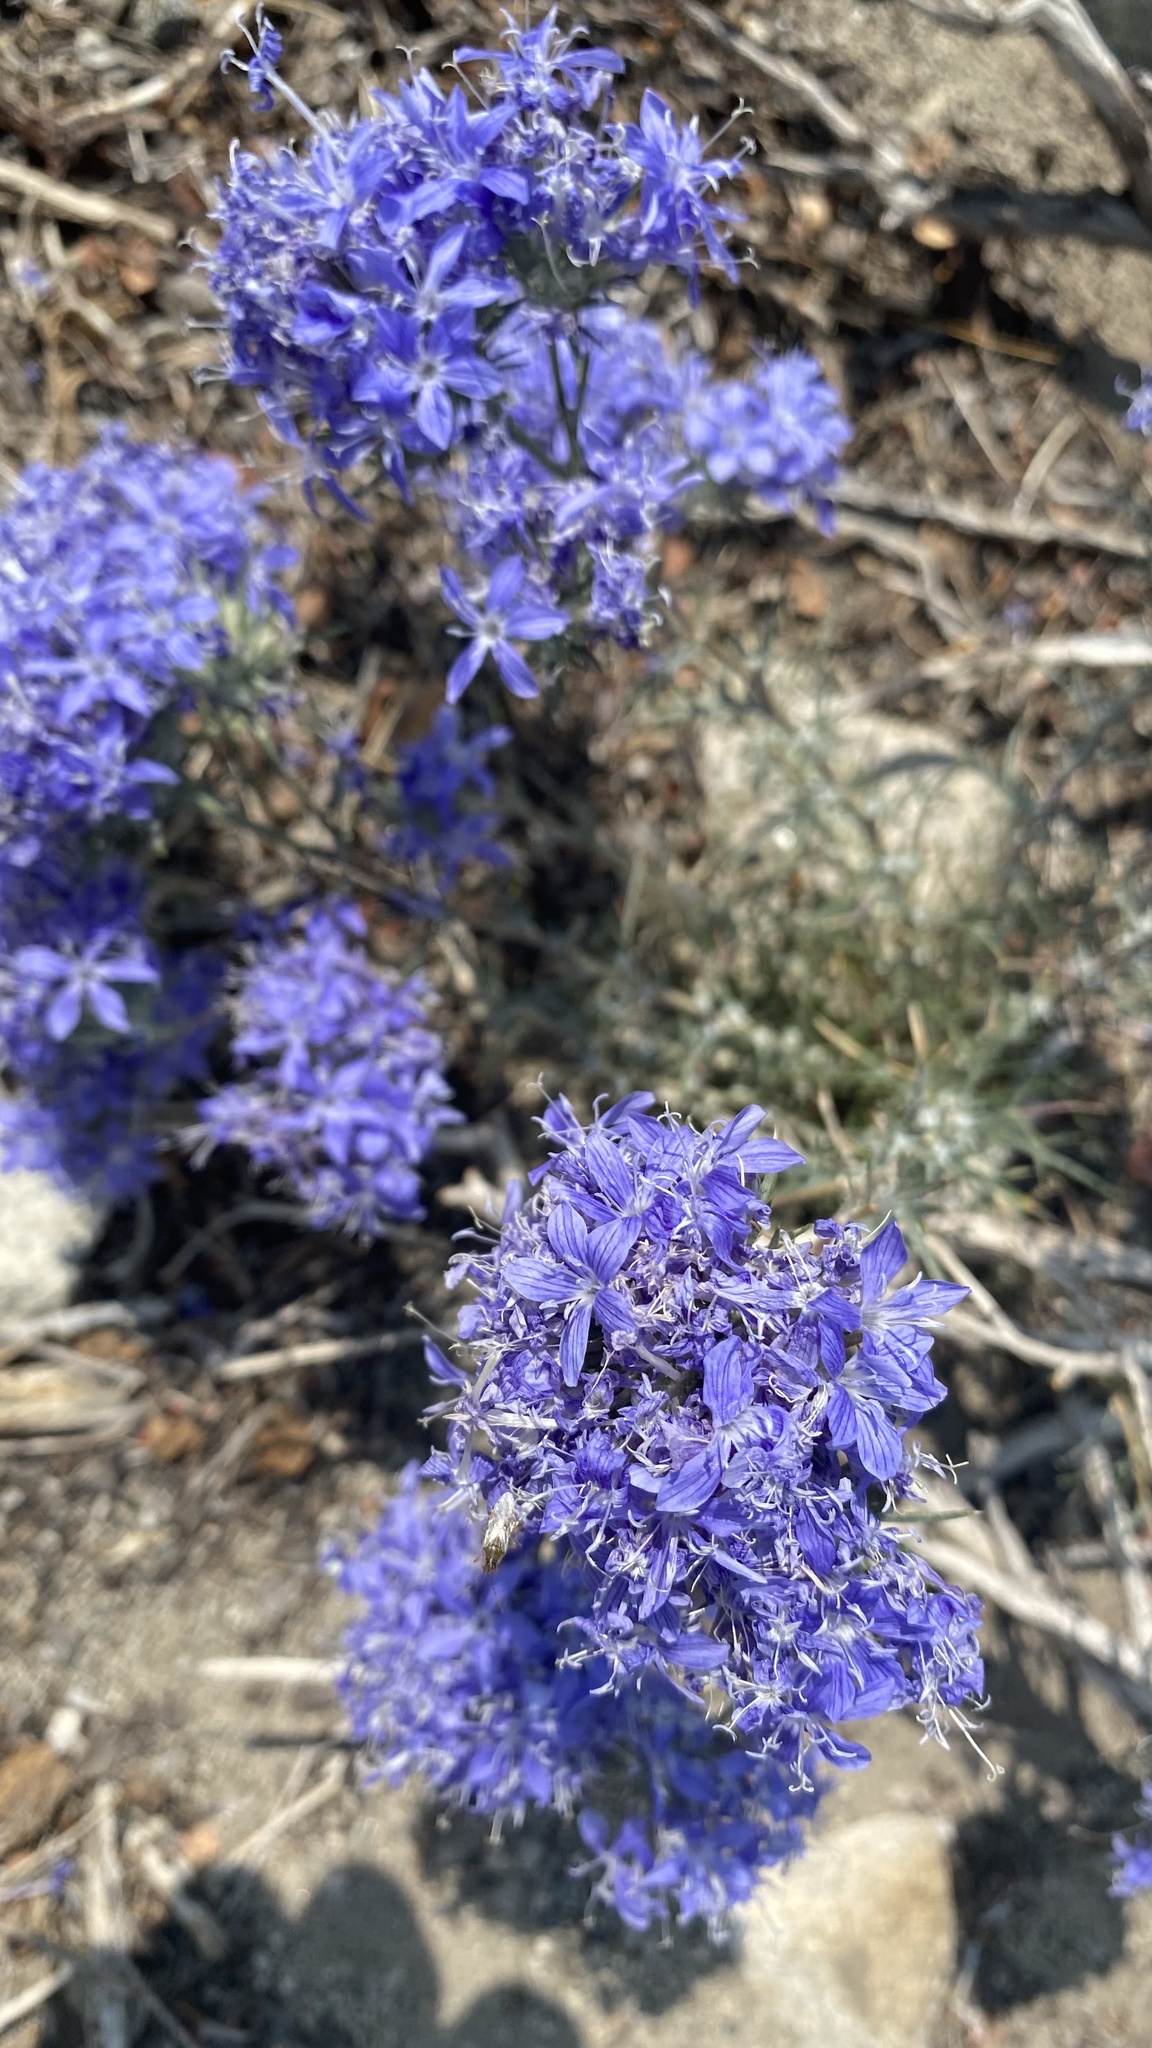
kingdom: Plantae
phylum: Tracheophyta
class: Magnoliopsida
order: Ericales
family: Polemoniaceae
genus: Eriastrum
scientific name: Eriastrum densifolium
